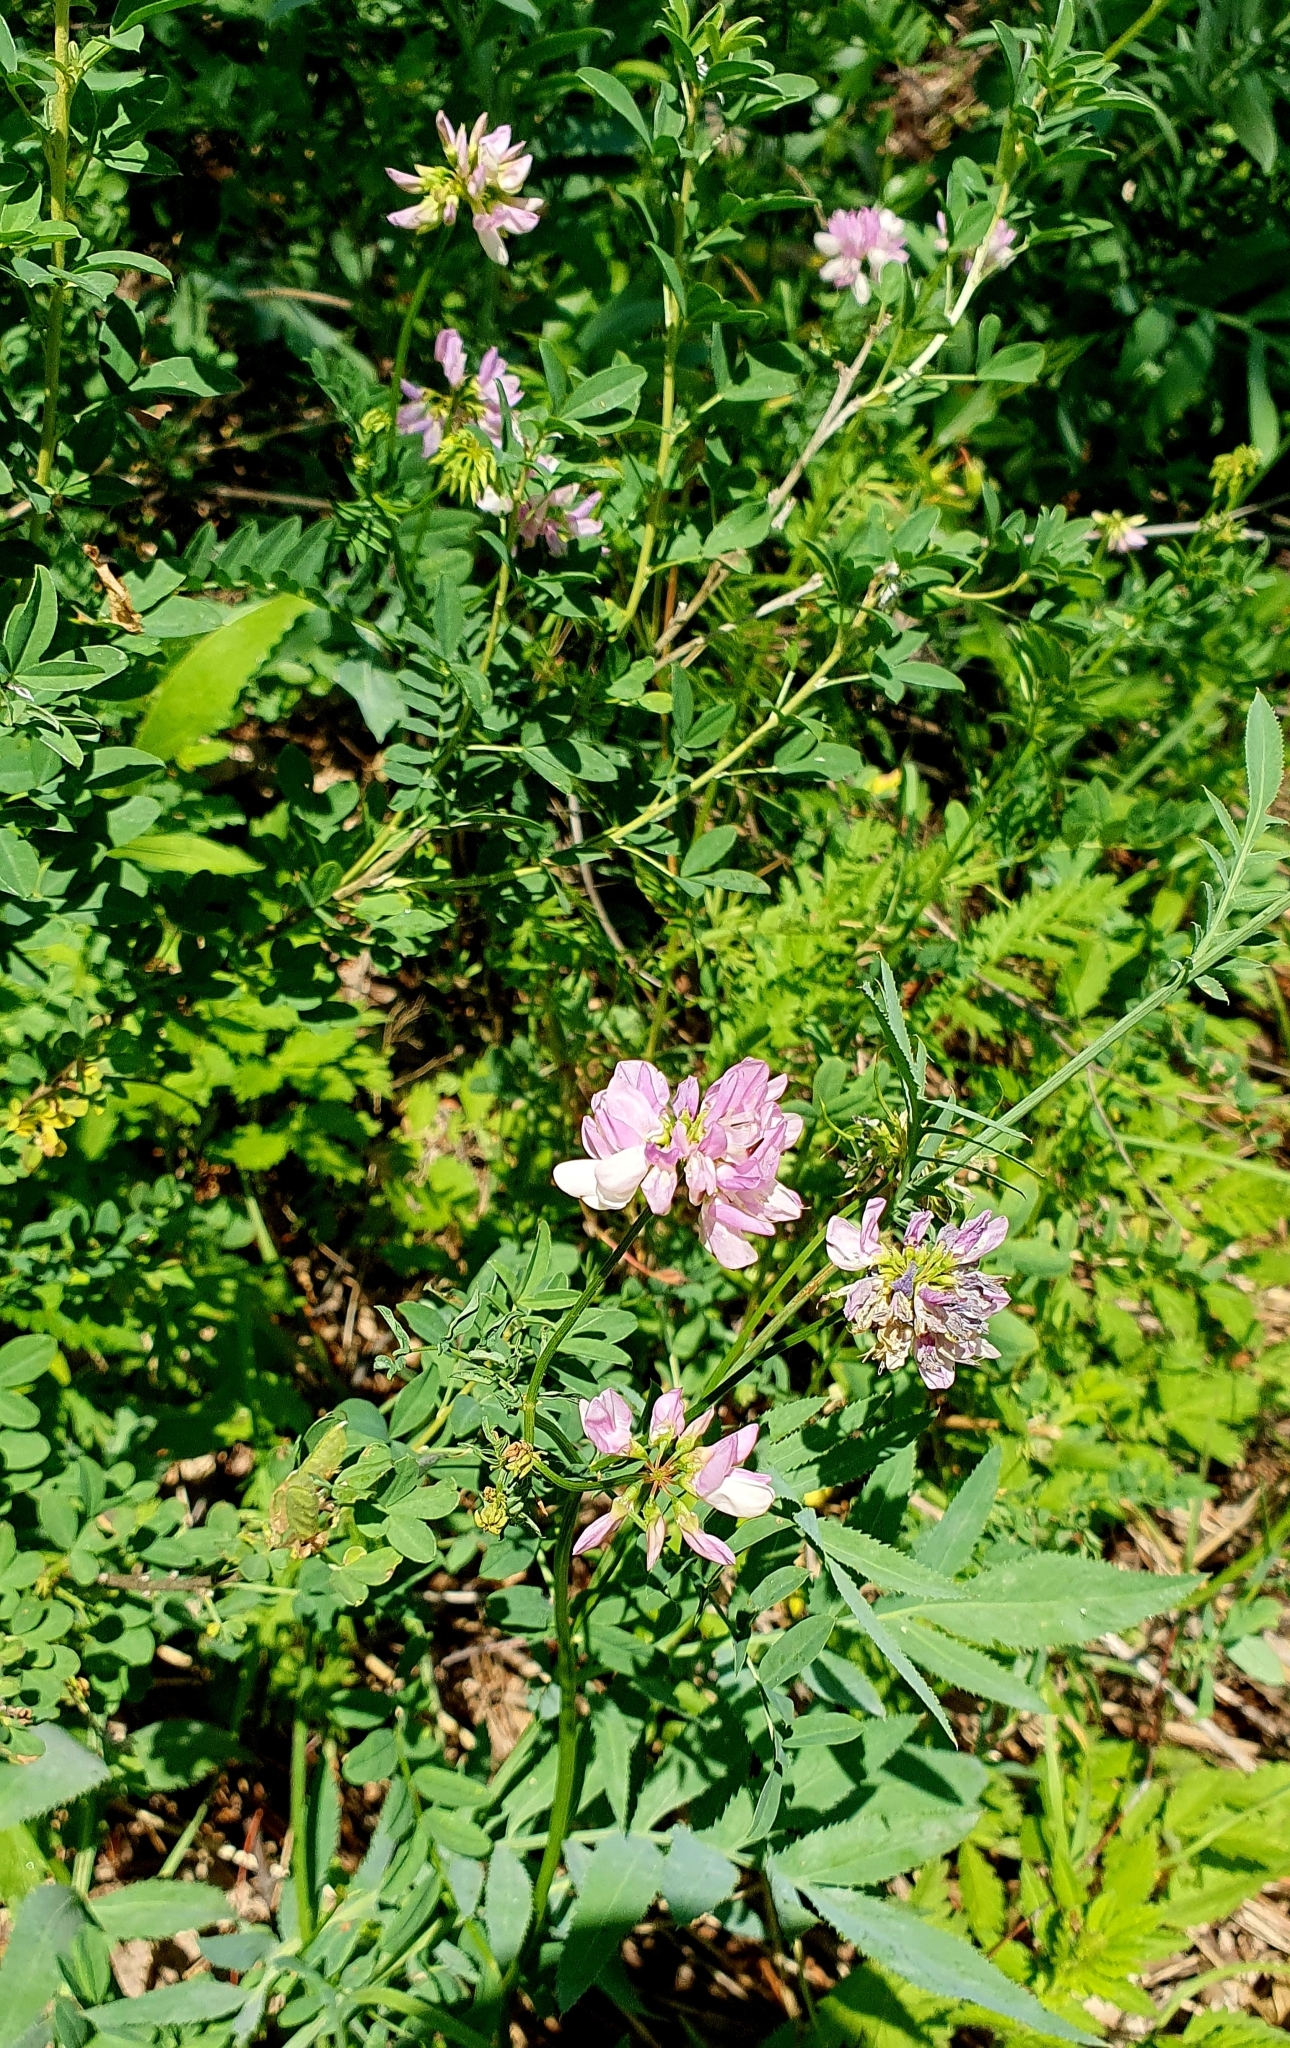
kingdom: Plantae
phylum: Tracheophyta
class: Magnoliopsida
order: Fabales
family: Fabaceae
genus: Coronilla
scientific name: Coronilla varia
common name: Crownvetch
